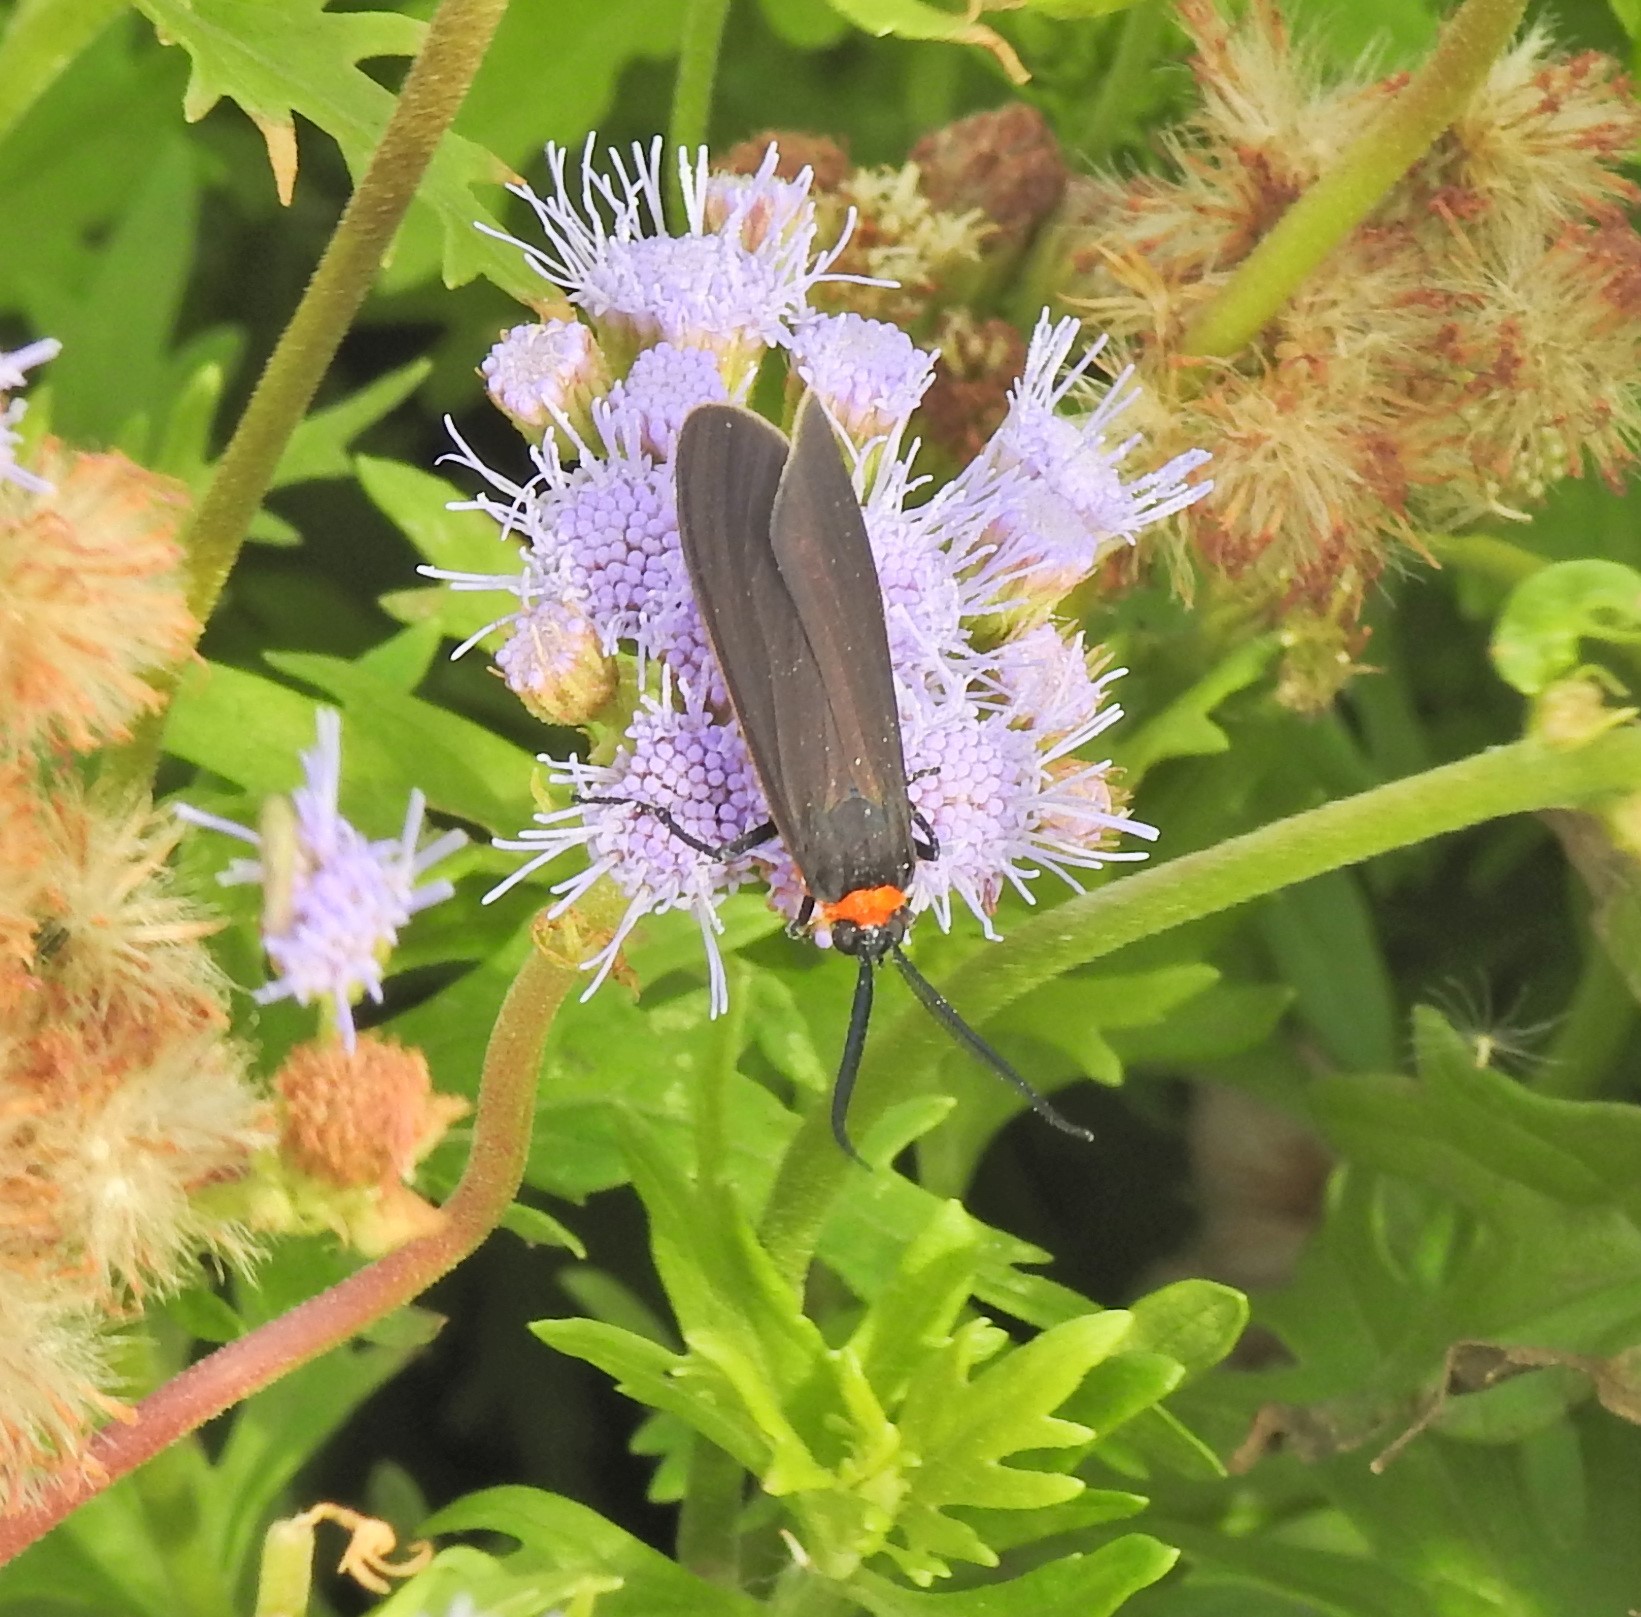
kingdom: Animalia
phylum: Arthropoda
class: Insecta
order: Lepidoptera
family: Erebidae
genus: Cisseps
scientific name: Cisseps fulvicollis
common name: Yellow-collared scape moth
